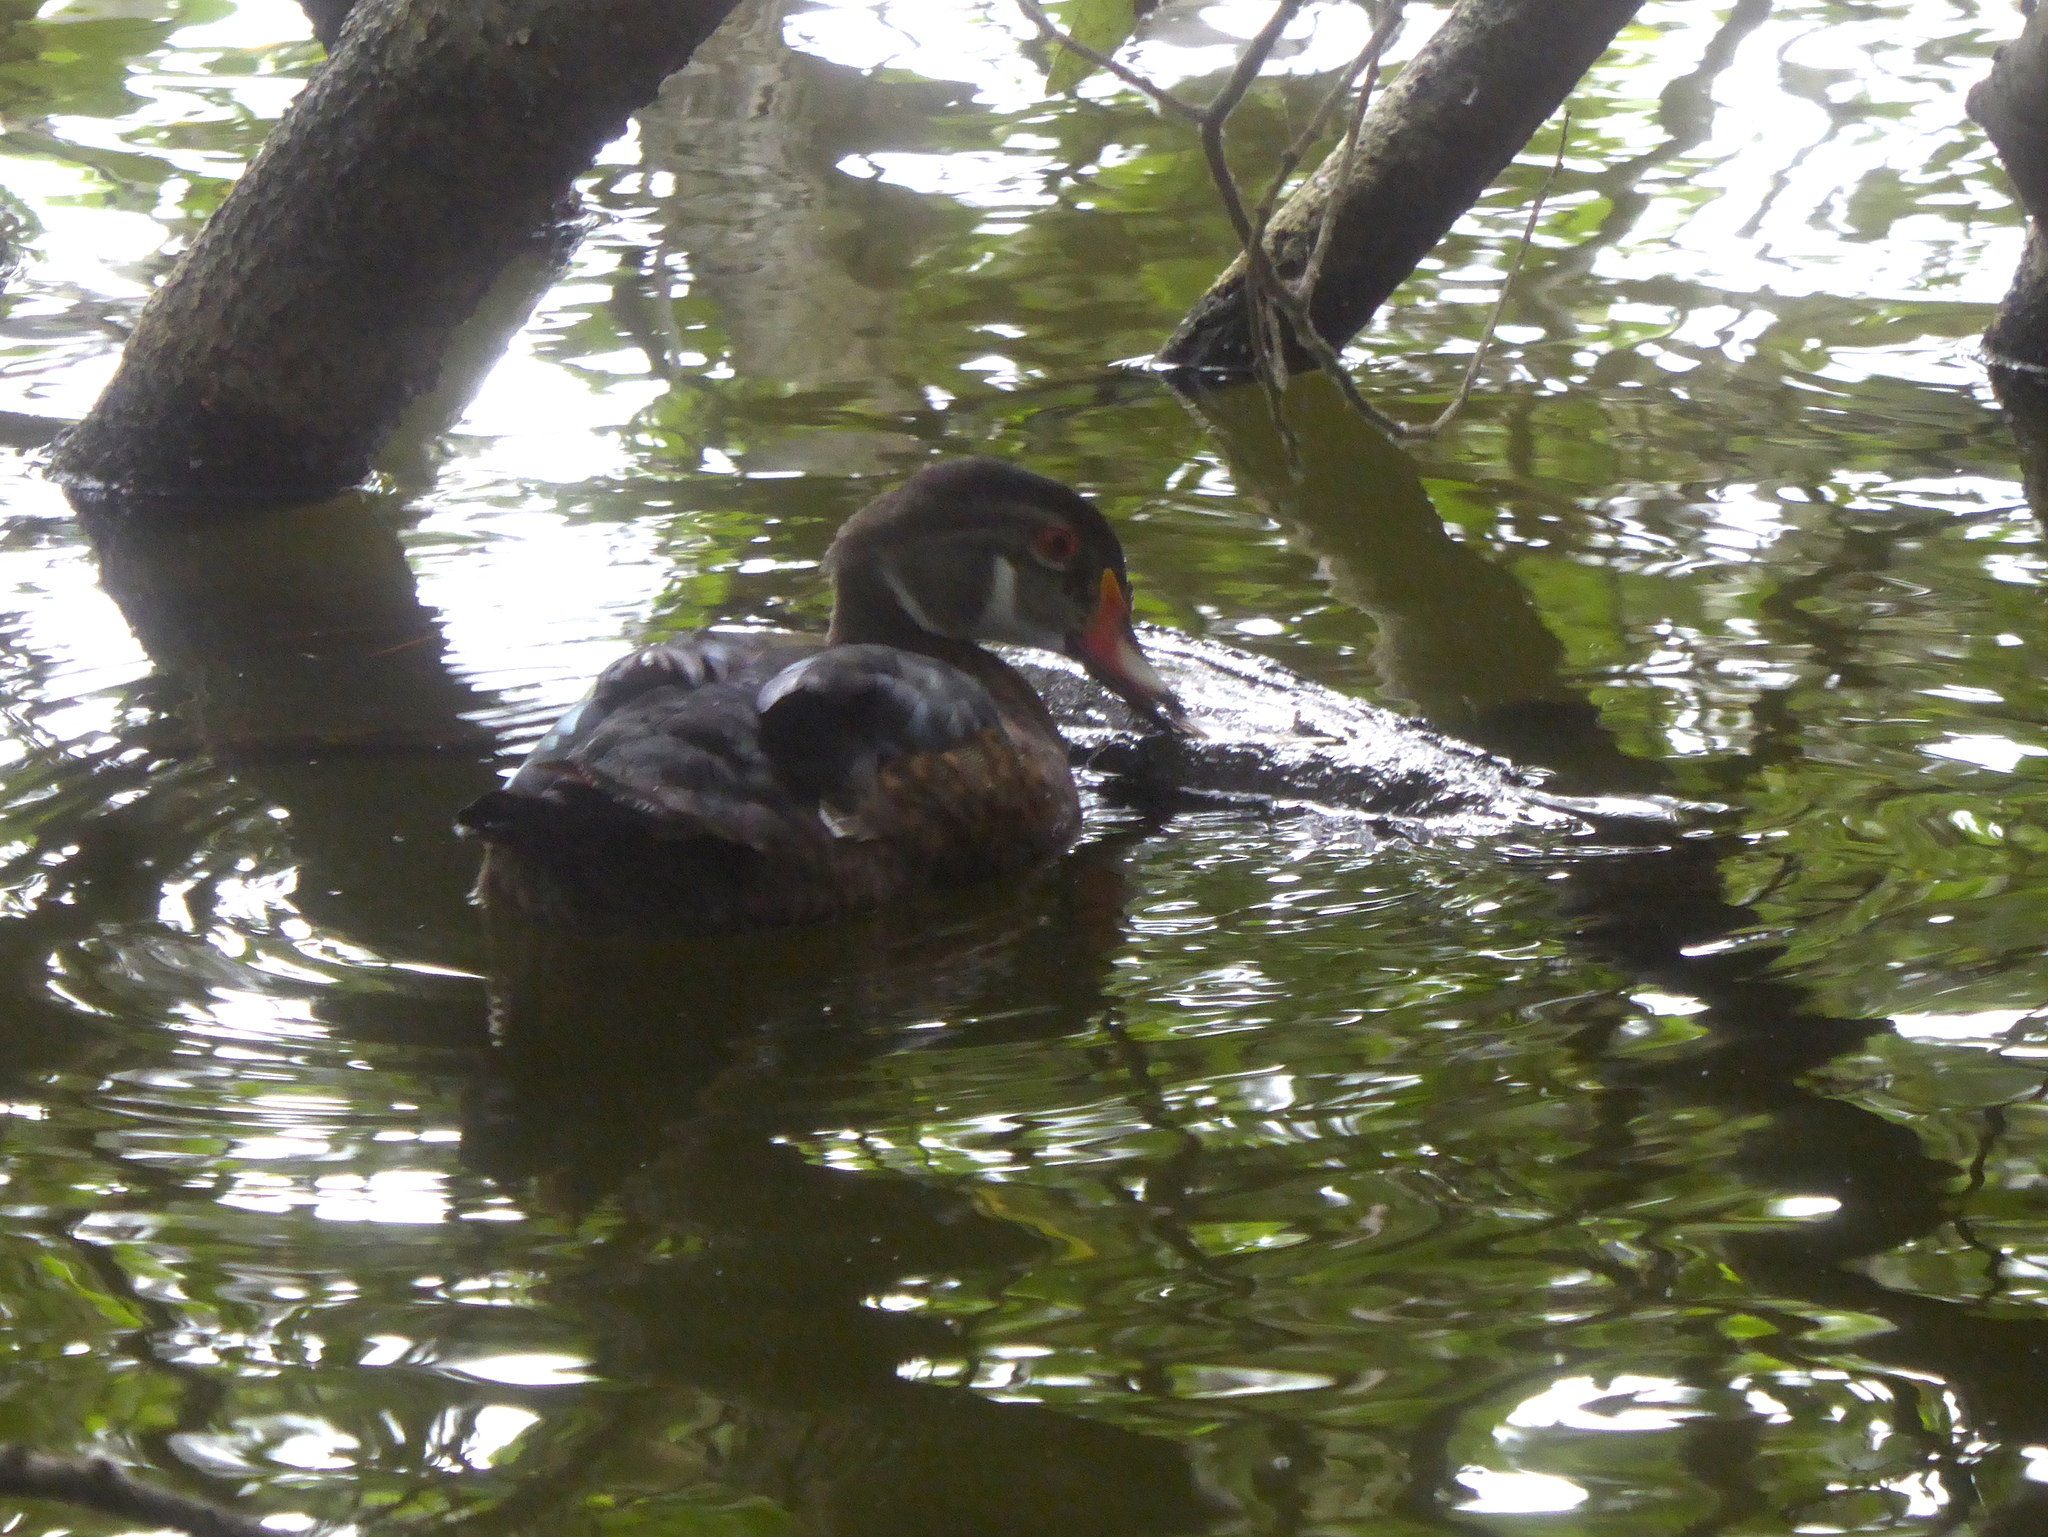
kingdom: Animalia
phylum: Chordata
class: Aves
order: Anseriformes
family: Anatidae
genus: Aix
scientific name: Aix sponsa
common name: Wood duck
